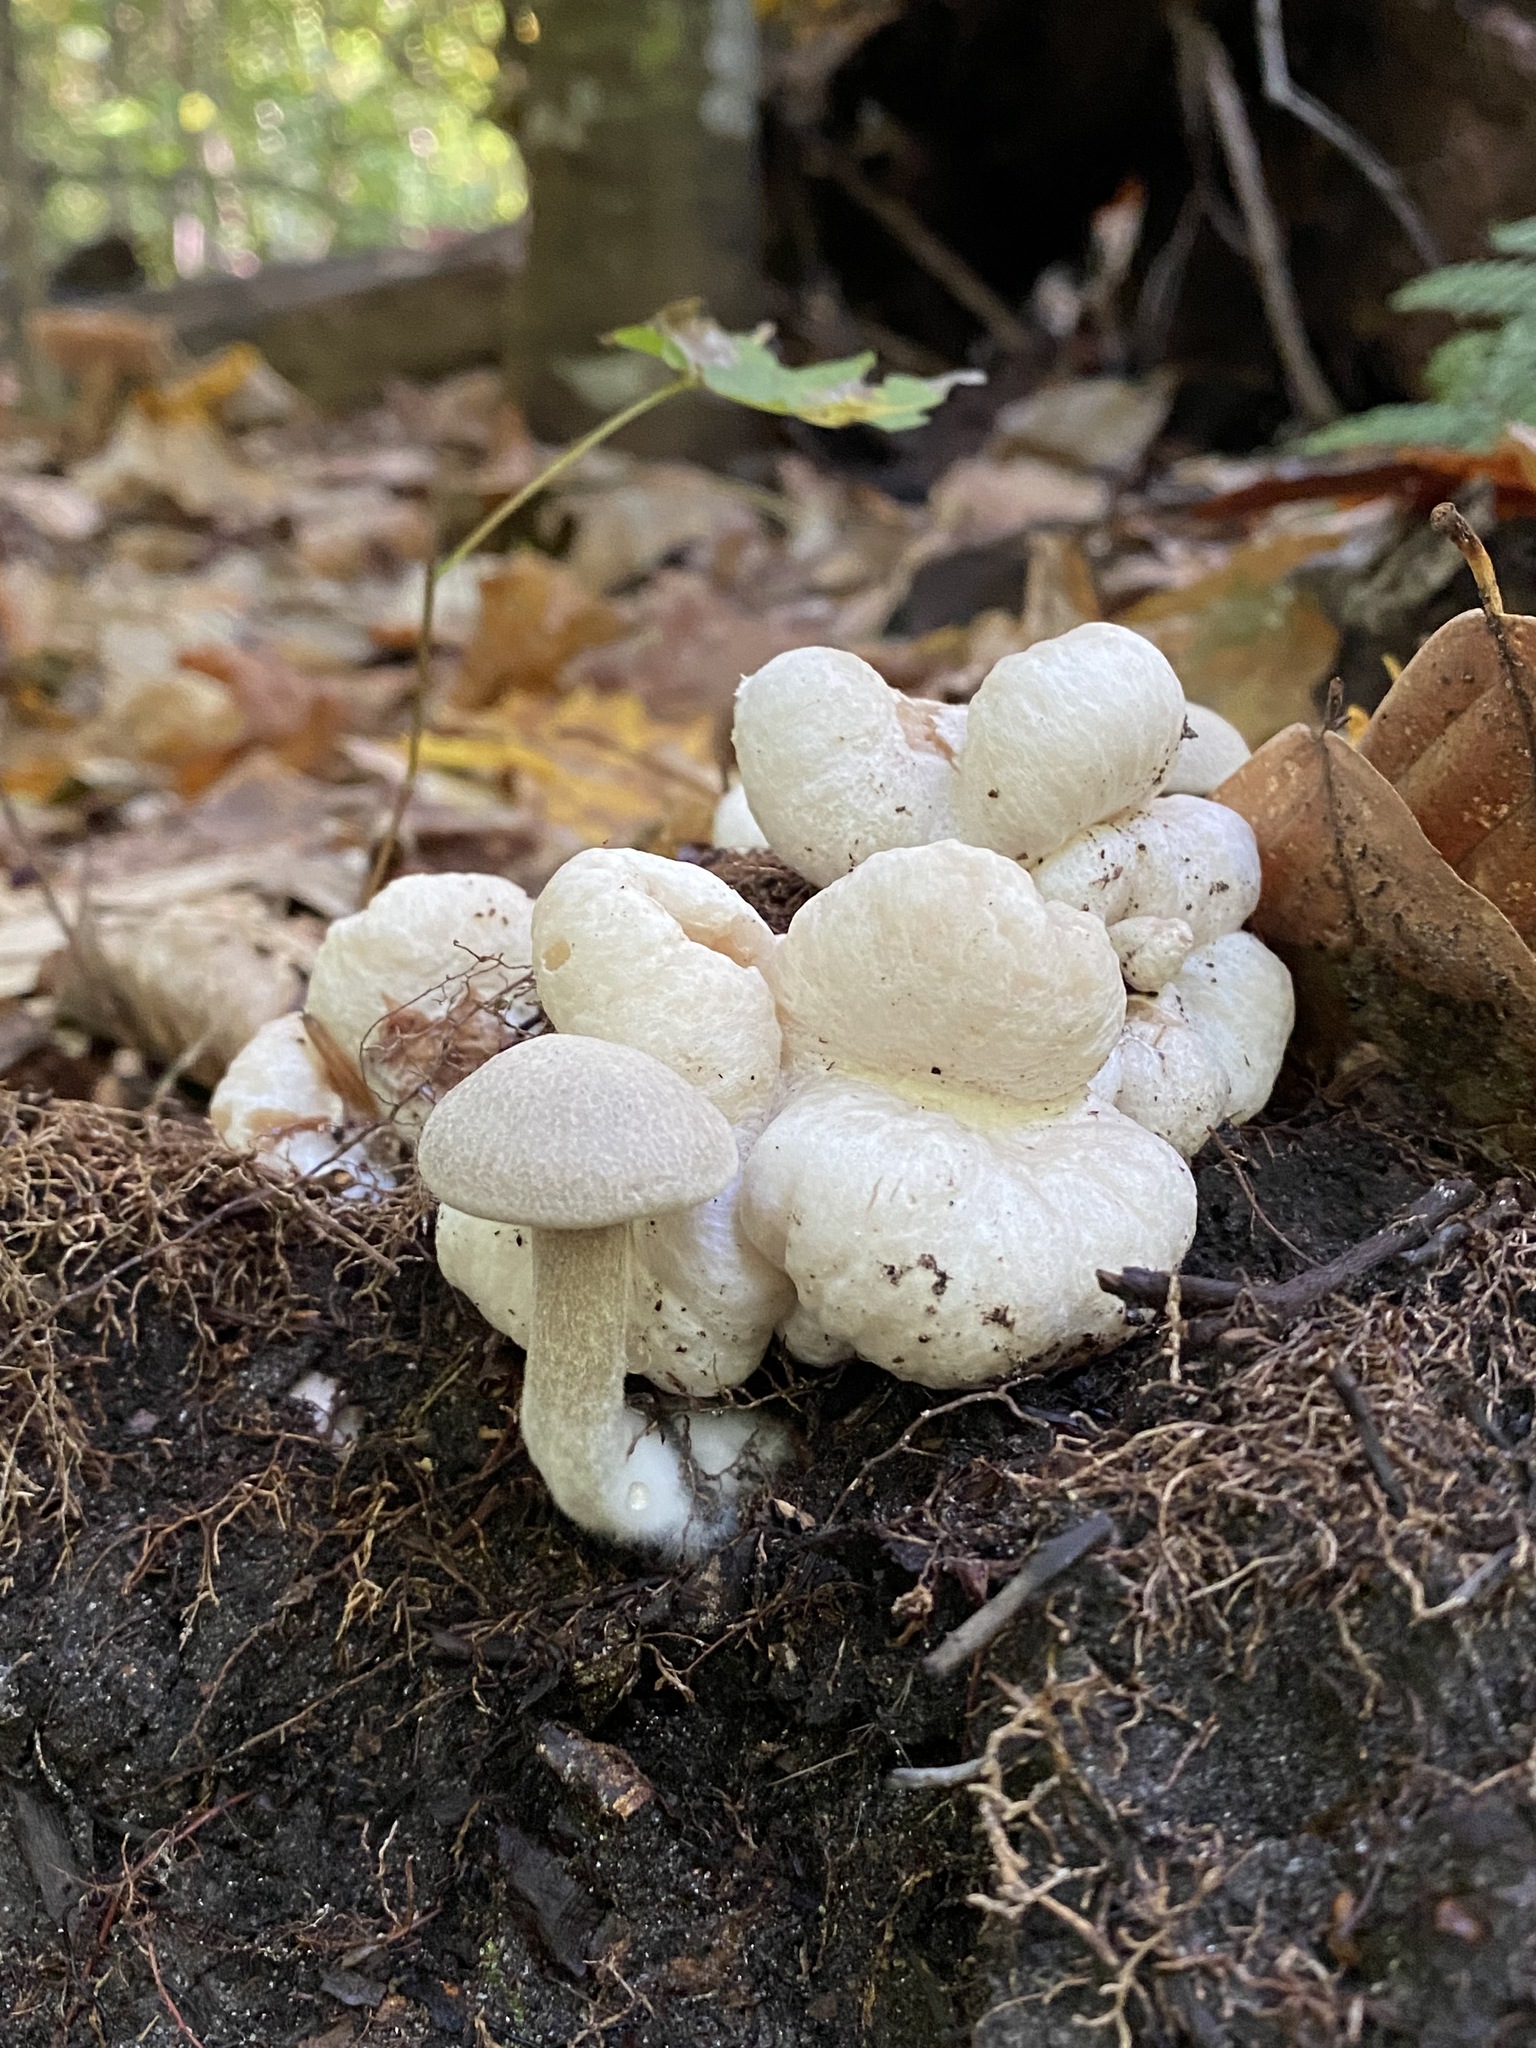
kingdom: Fungi
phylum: Basidiomycota
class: Agaricomycetes
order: Agaricales
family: Entolomataceae
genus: Entoloma
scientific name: Entoloma abortivum
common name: Aborted entoloma
